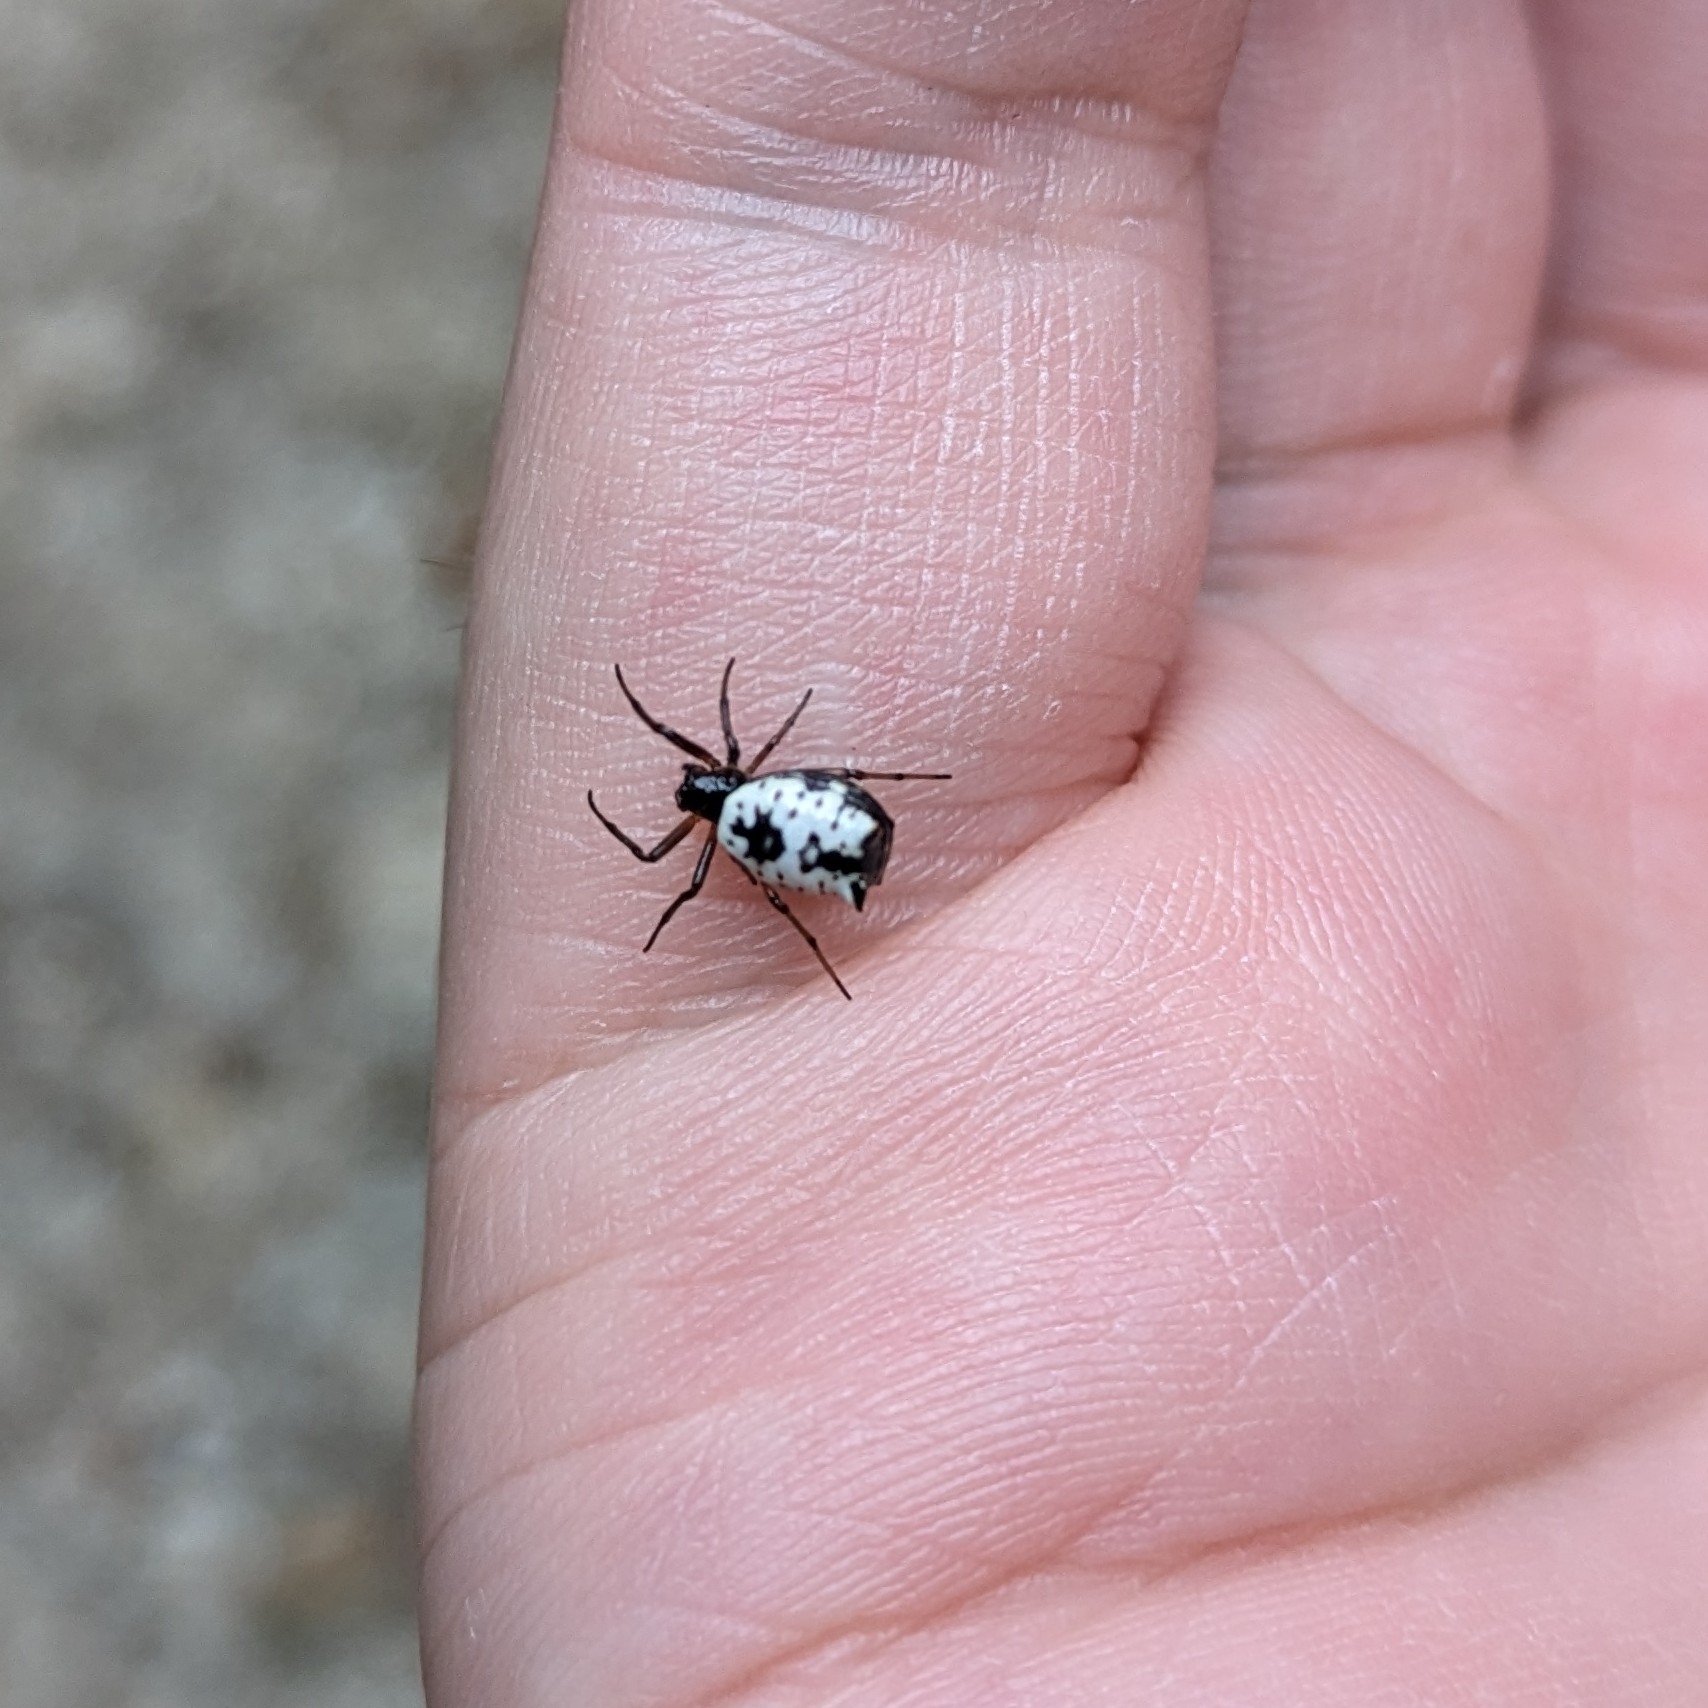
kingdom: Animalia
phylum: Arthropoda
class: Arachnida
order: Araneae
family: Araneidae
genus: Micrathena
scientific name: Micrathena mitrata
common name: Orb weavers
